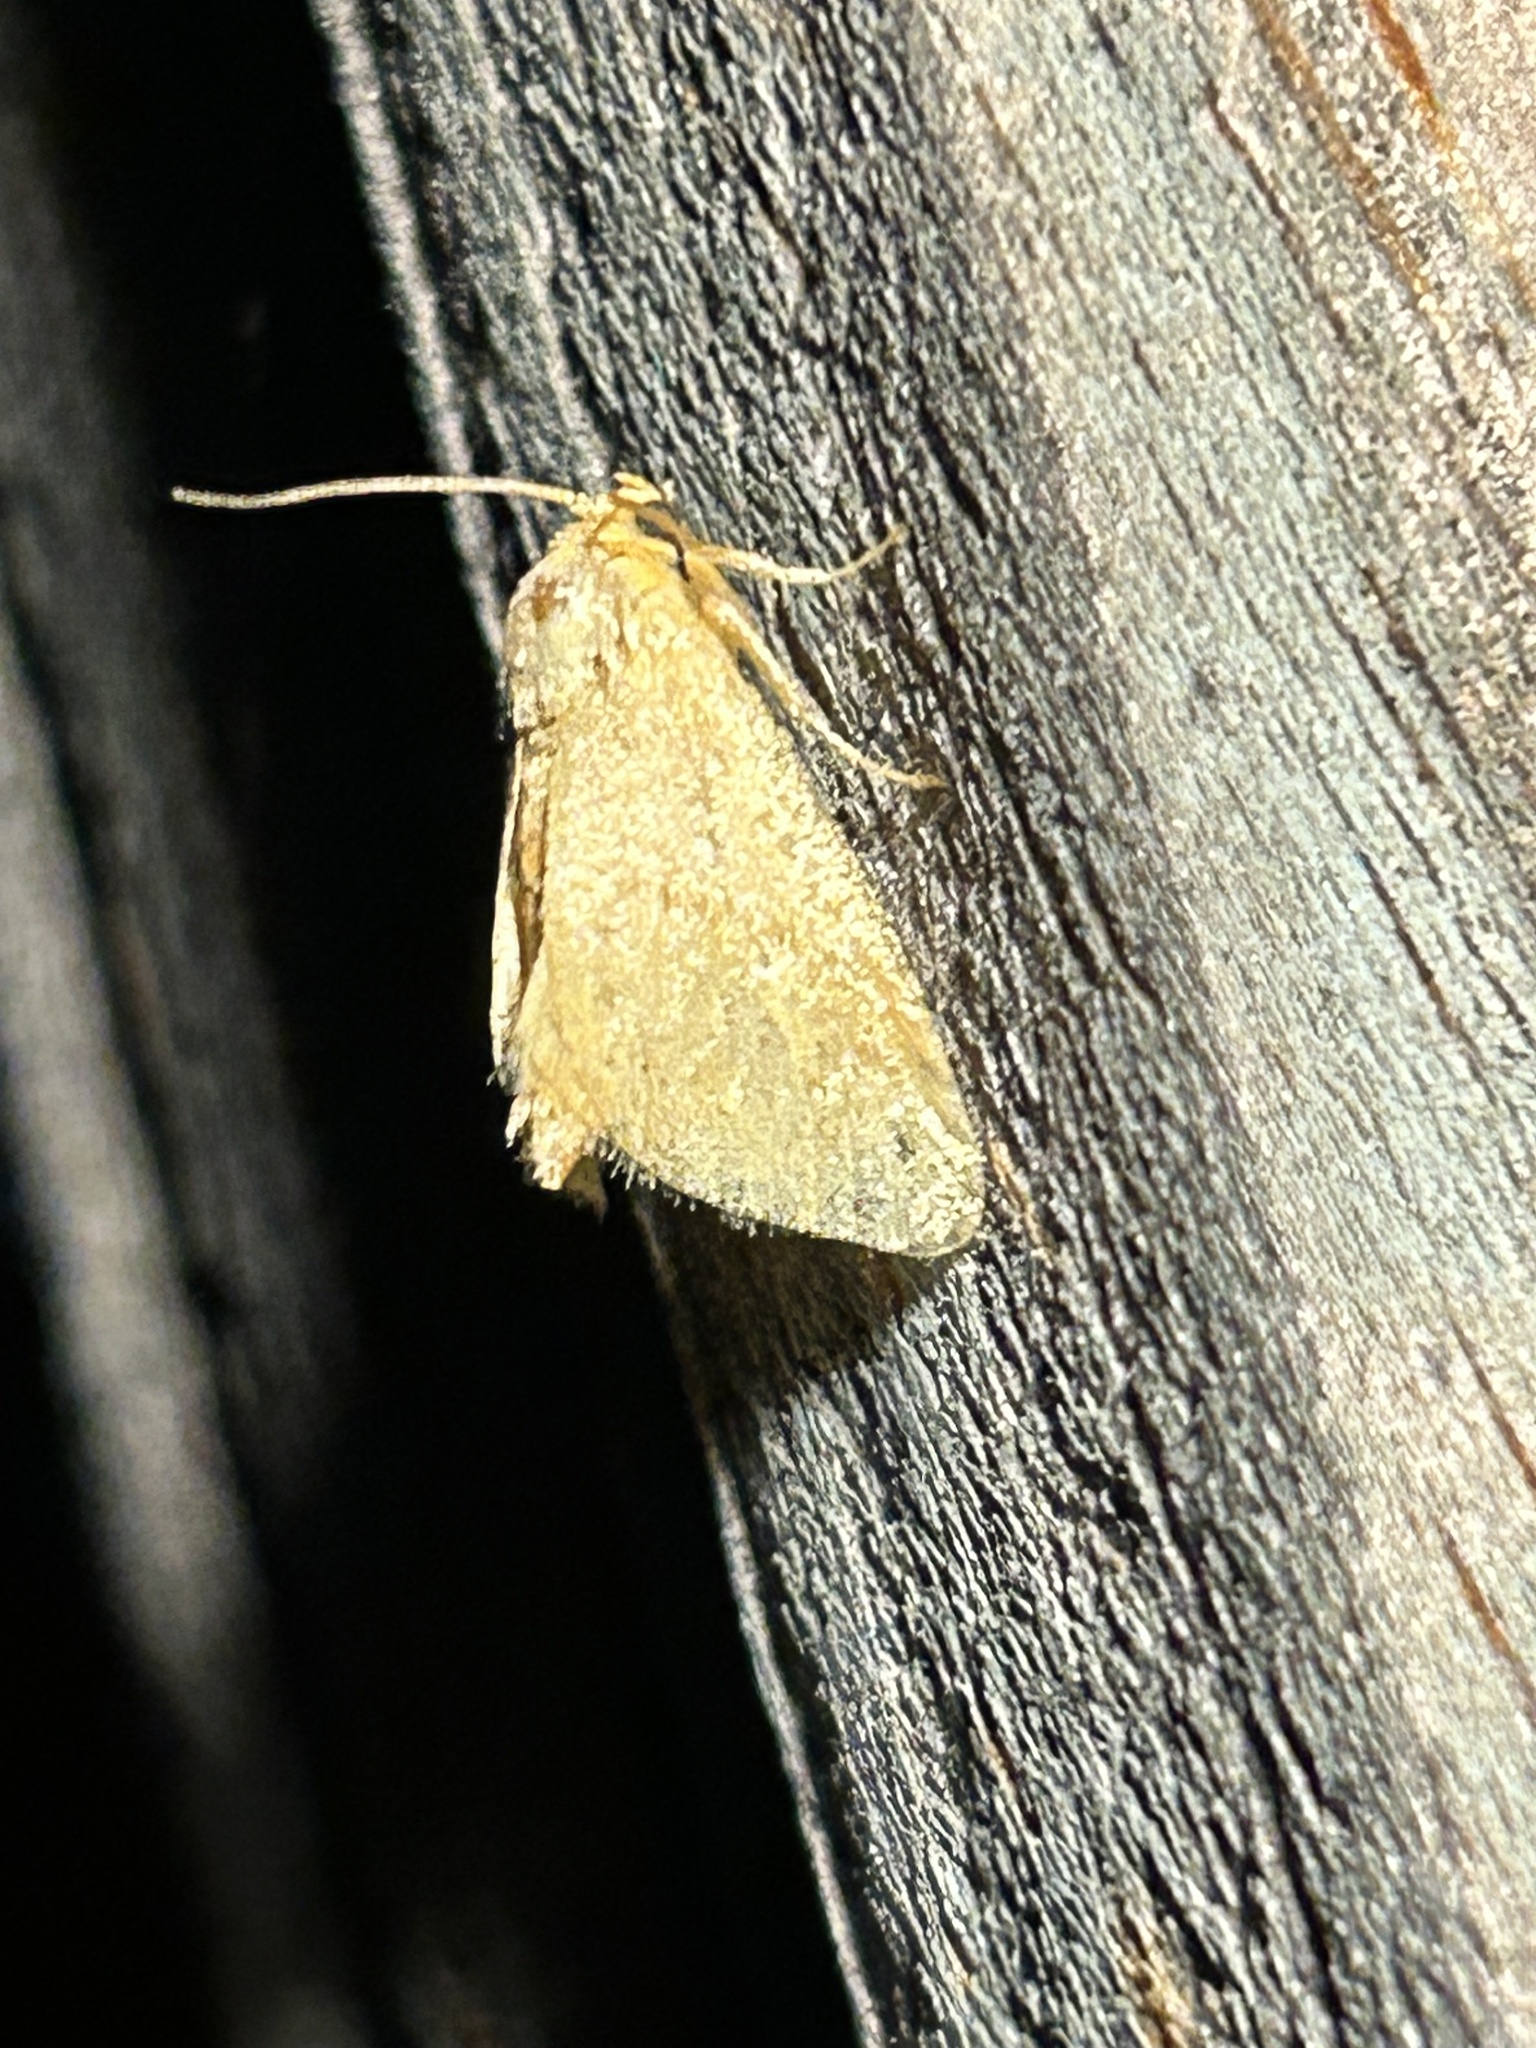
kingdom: Animalia
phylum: Arthropoda
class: Insecta
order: Lepidoptera
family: Limacodidae
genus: Tortricidia
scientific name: Tortricidia pallida
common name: Red-crossed button slug moth
